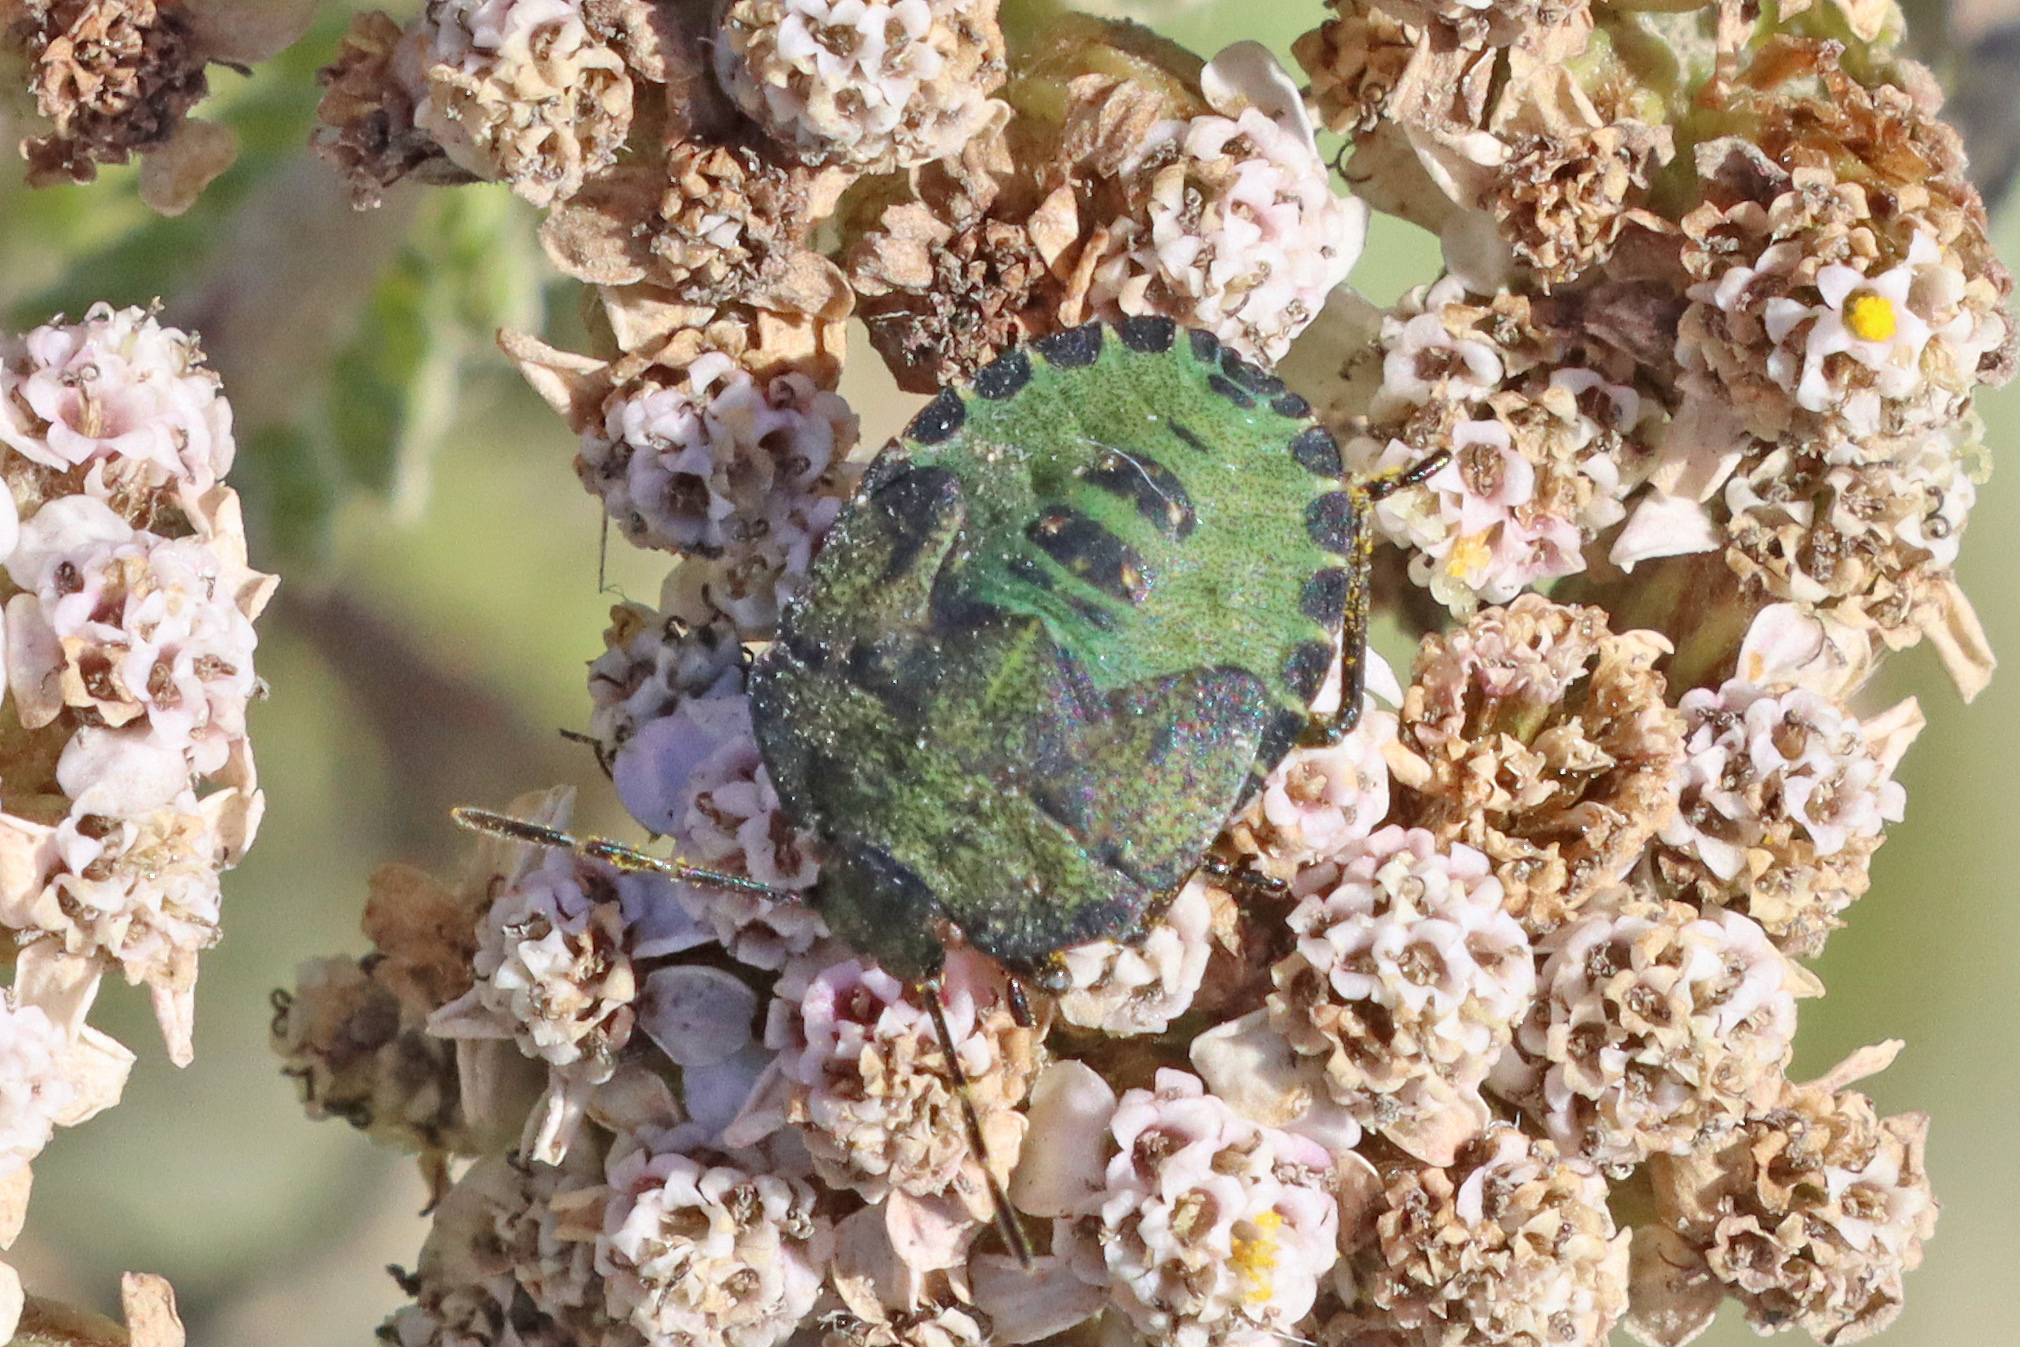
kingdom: Animalia
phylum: Arthropoda
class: Insecta
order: Hemiptera
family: Pentatomidae
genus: Palomena
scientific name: Palomena prasina
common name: Green shieldbug
